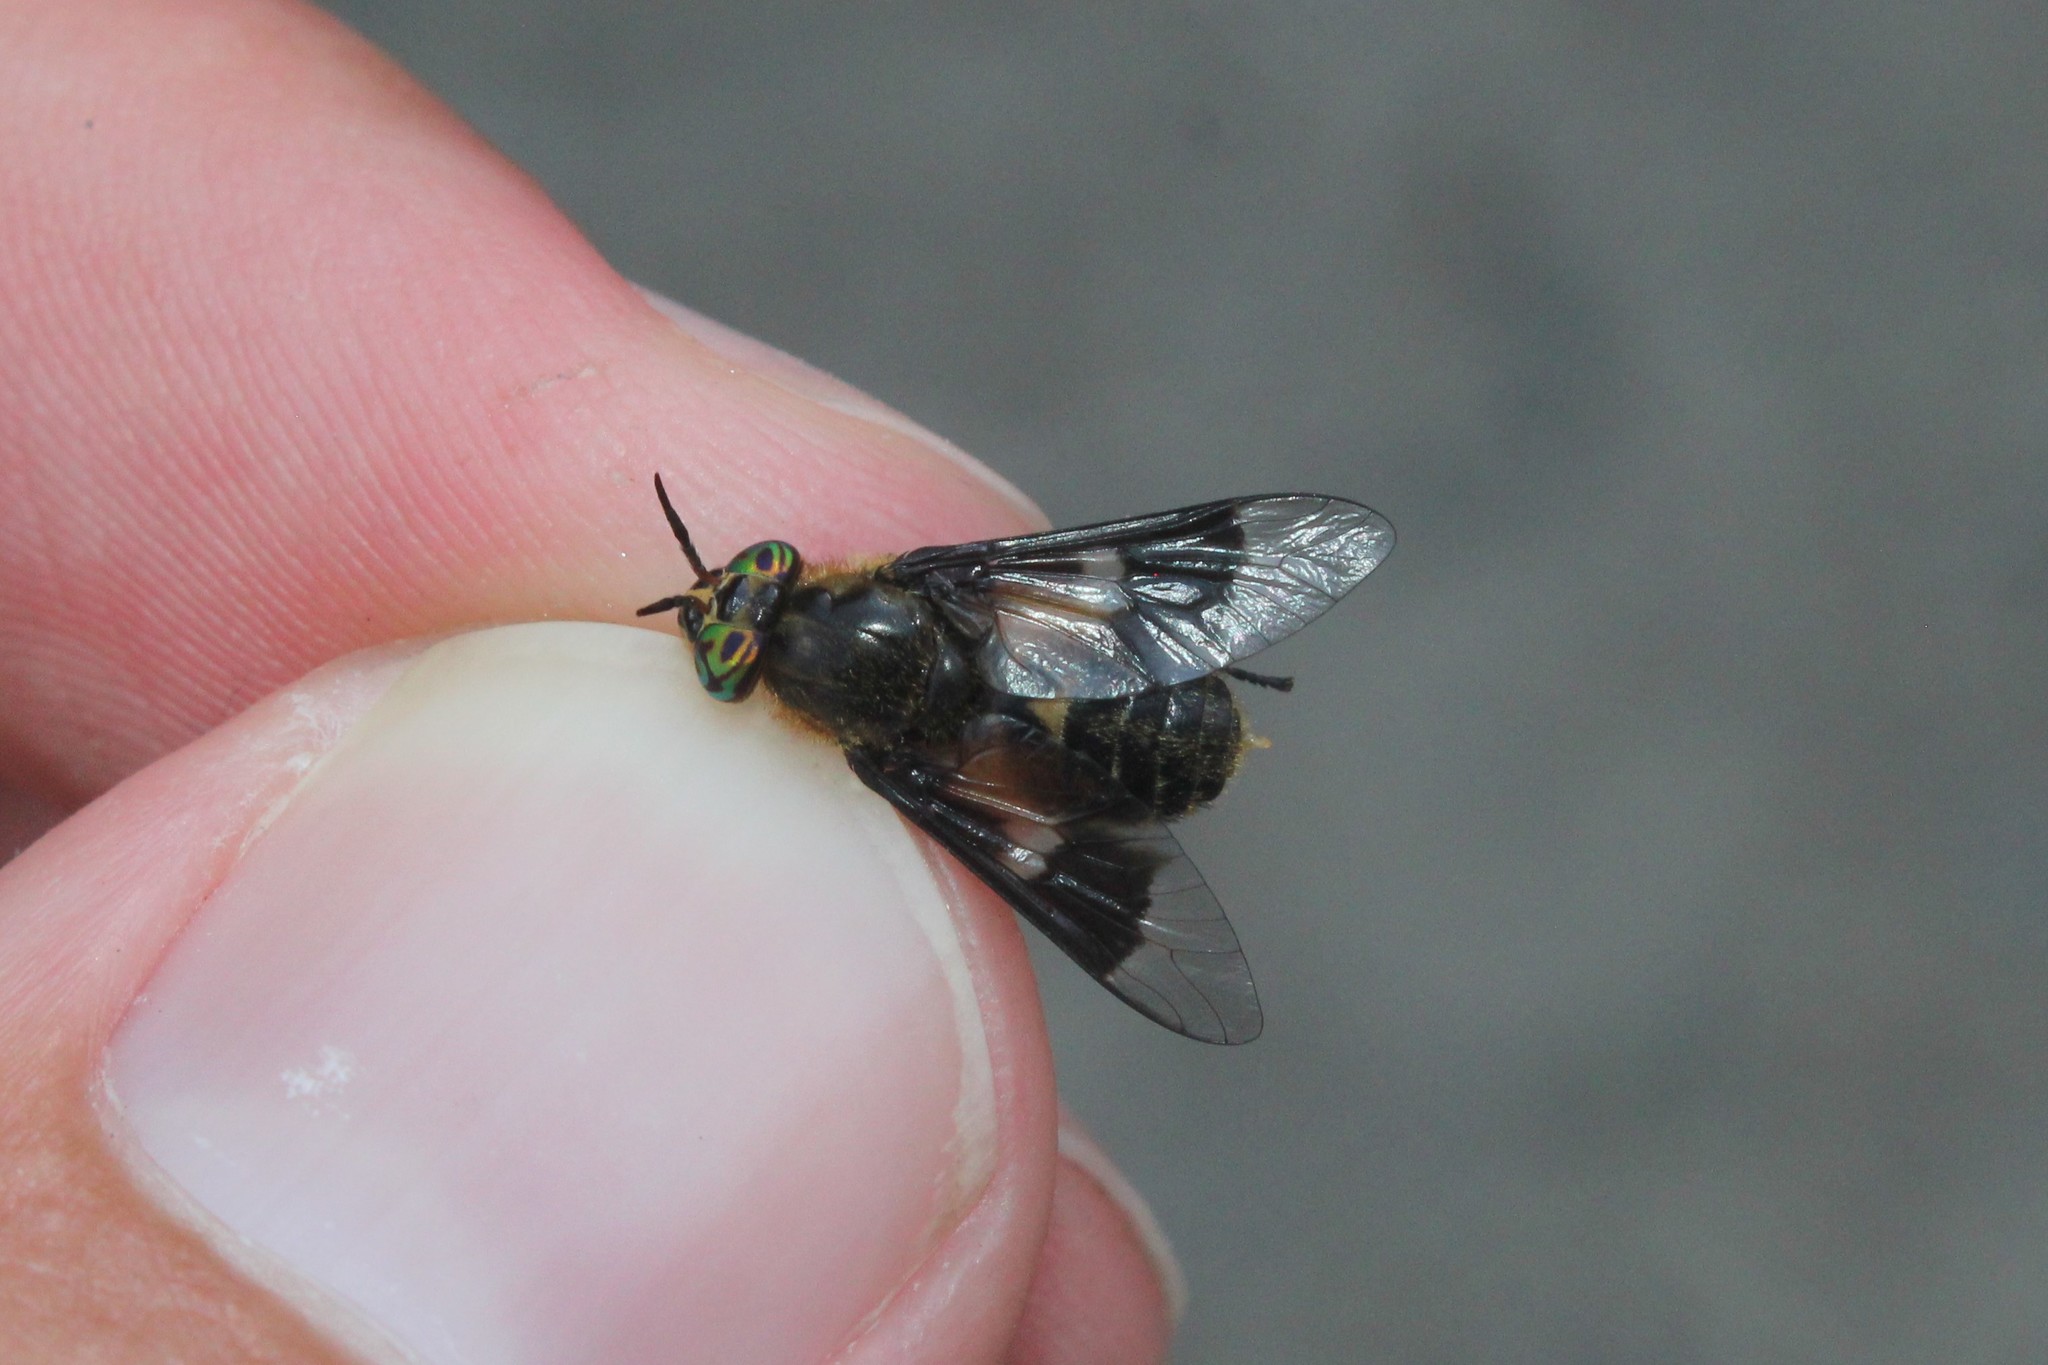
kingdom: Animalia
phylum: Arthropoda
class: Insecta
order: Diptera
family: Tabanidae
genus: Chrysops
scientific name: Chrysops excitans
